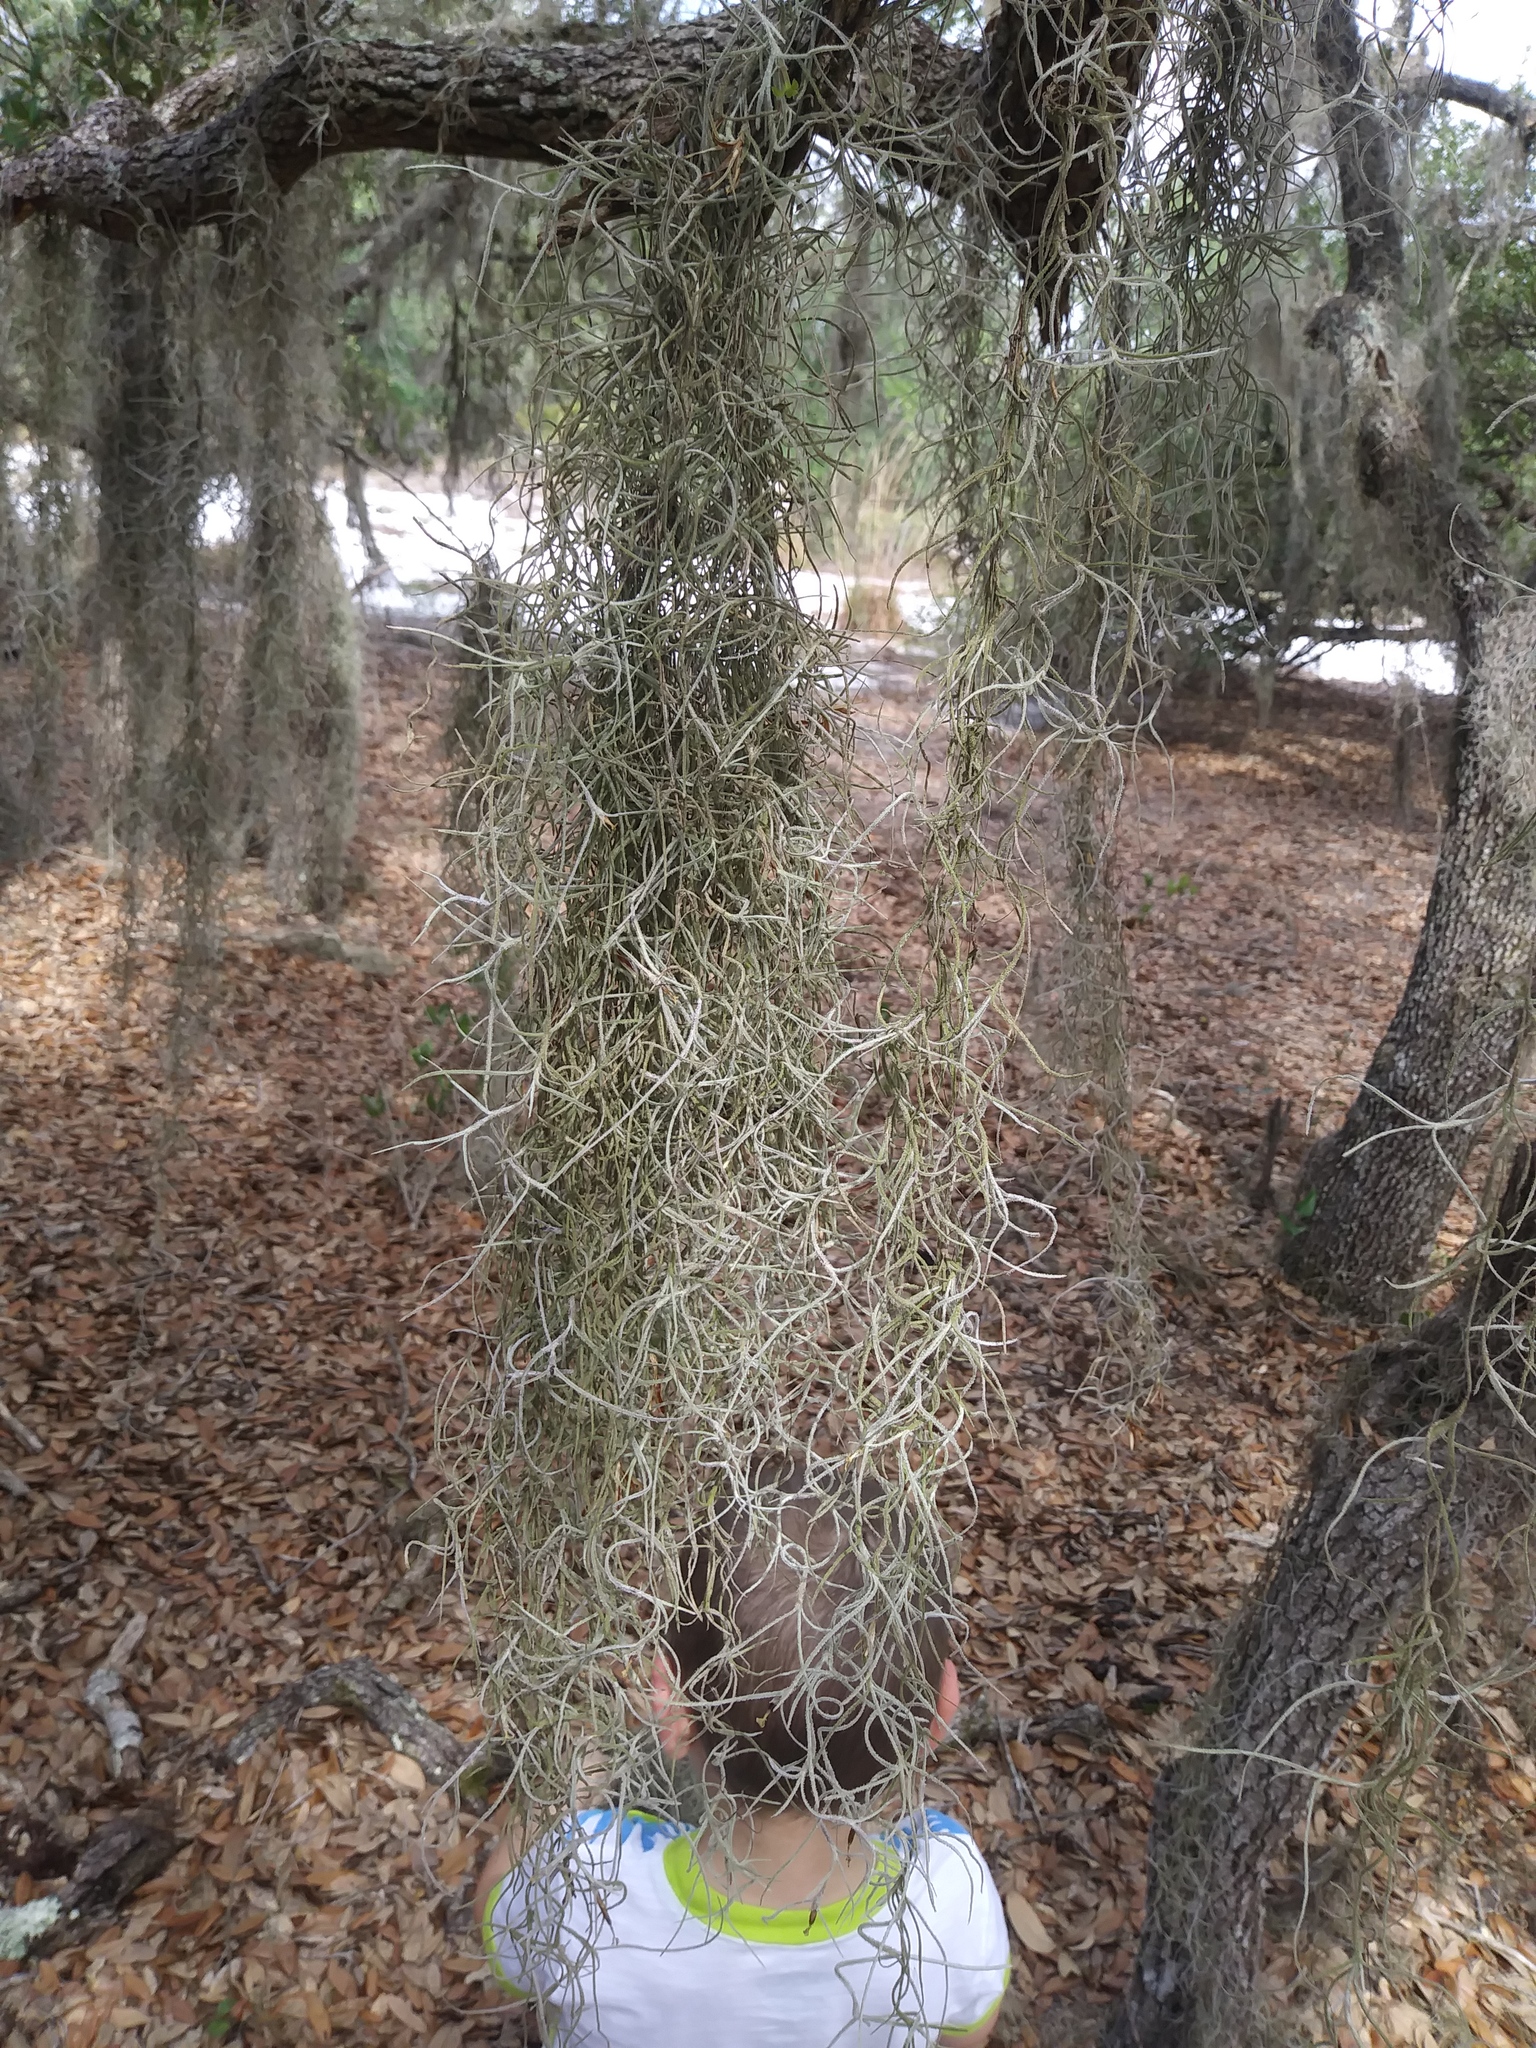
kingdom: Plantae
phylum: Tracheophyta
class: Liliopsida
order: Poales
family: Bromeliaceae
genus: Tillandsia
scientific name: Tillandsia usneoides
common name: Spanish moss
